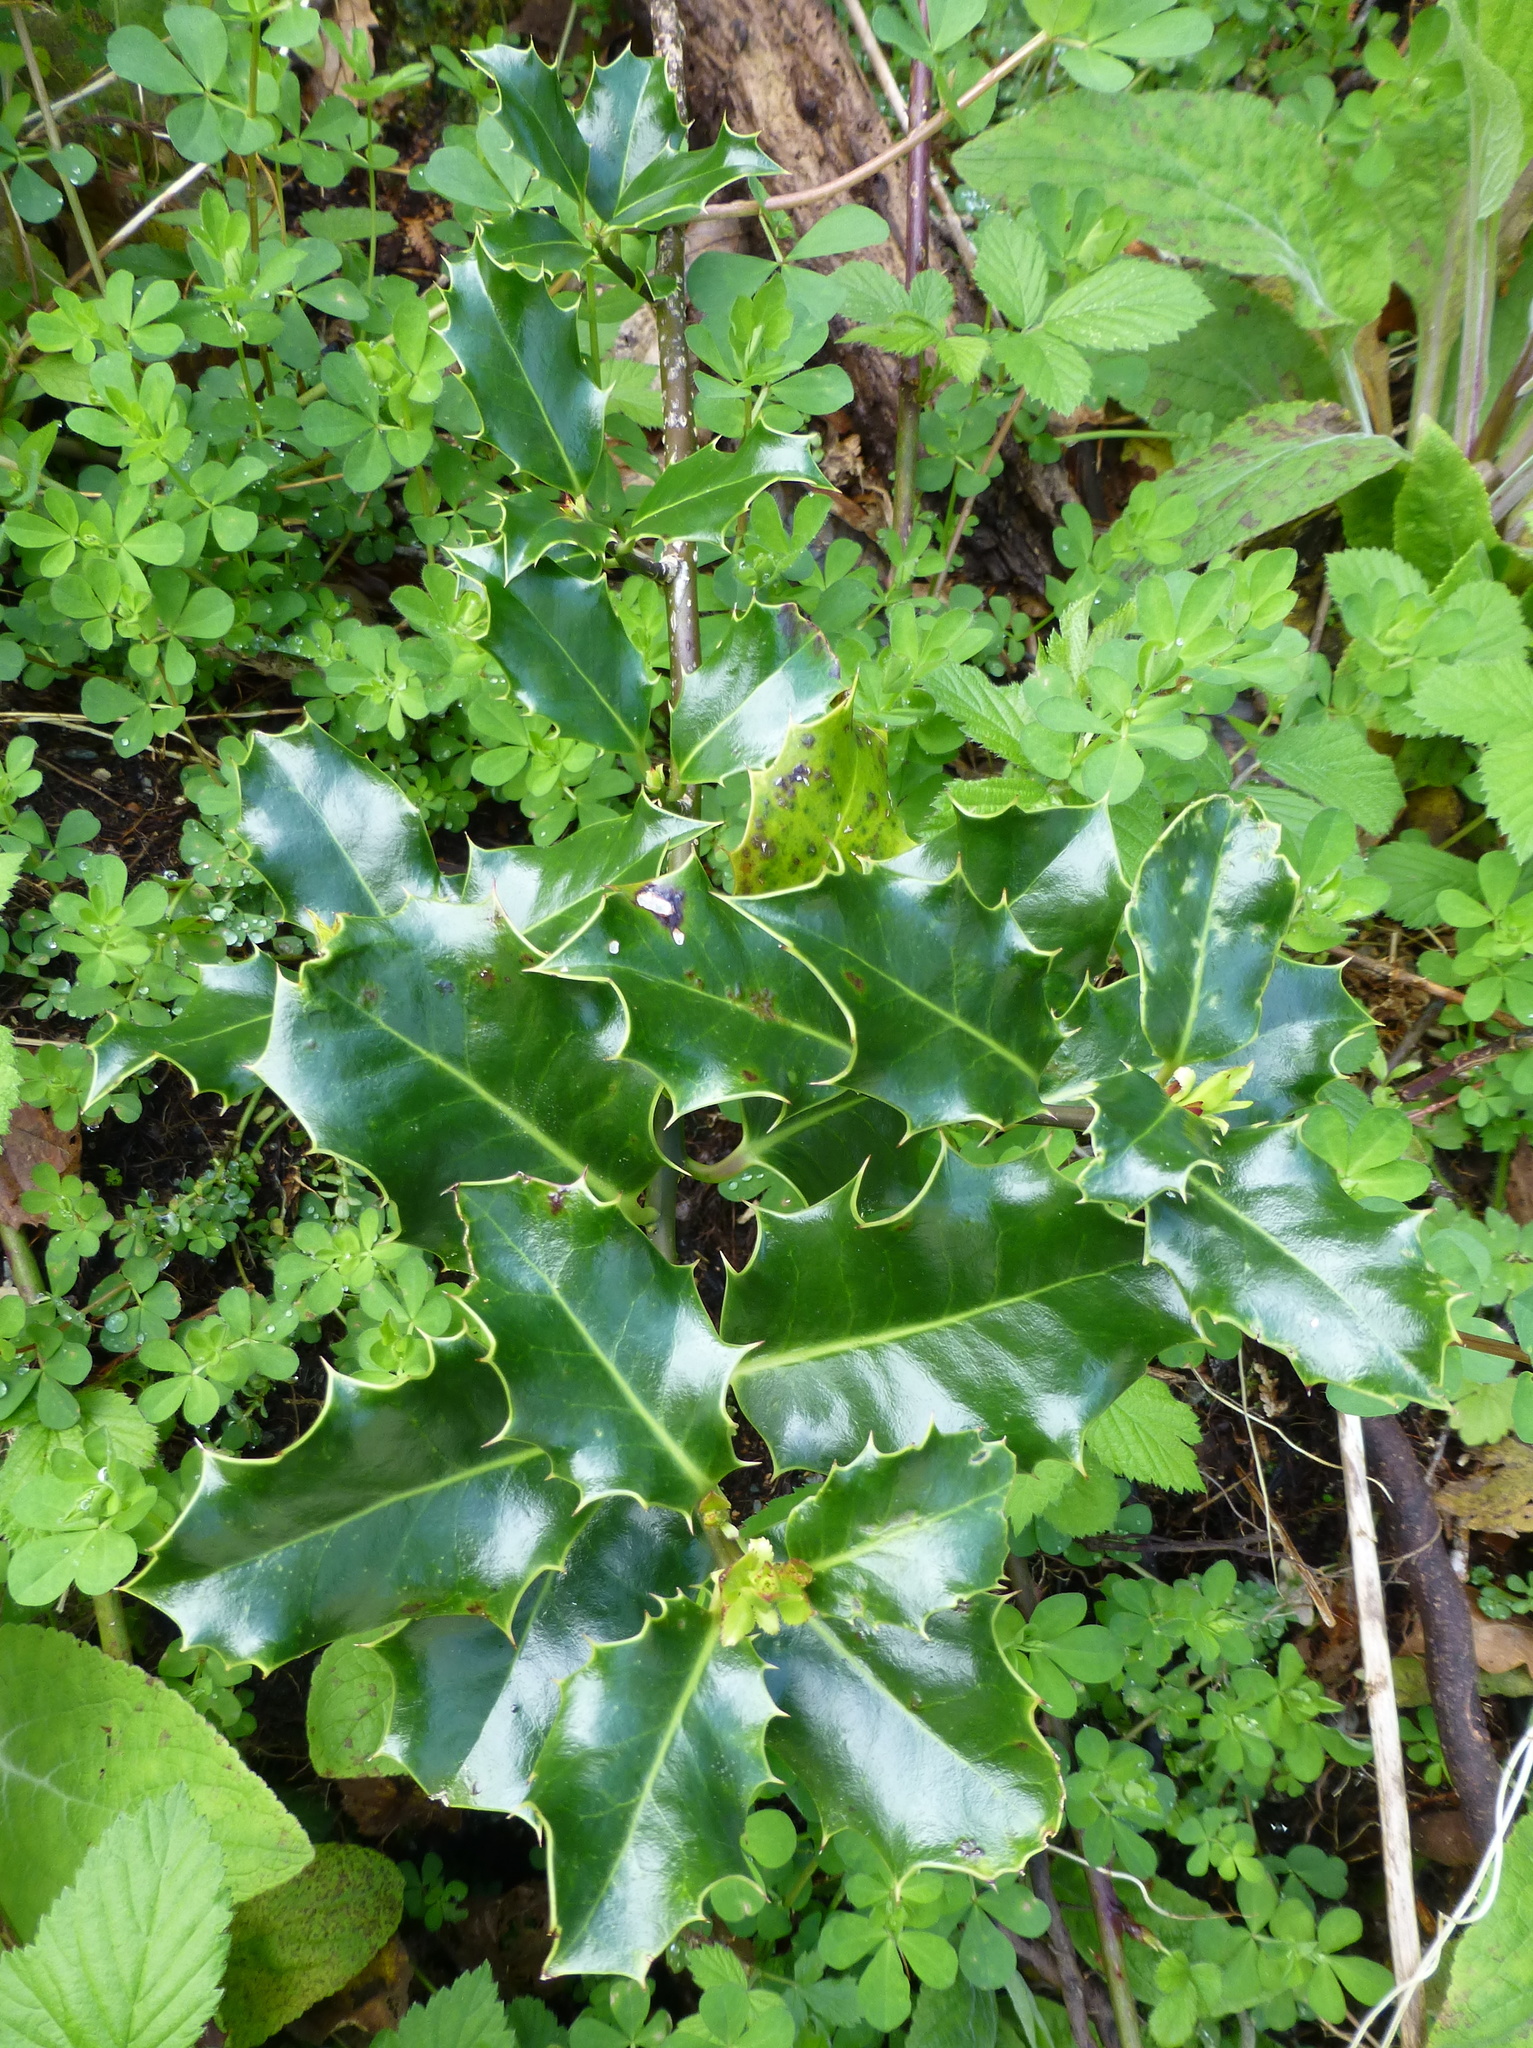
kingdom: Plantae
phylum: Tracheophyta
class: Magnoliopsida
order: Aquifoliales
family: Aquifoliaceae
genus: Ilex
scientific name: Ilex aquifolium
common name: English holly
